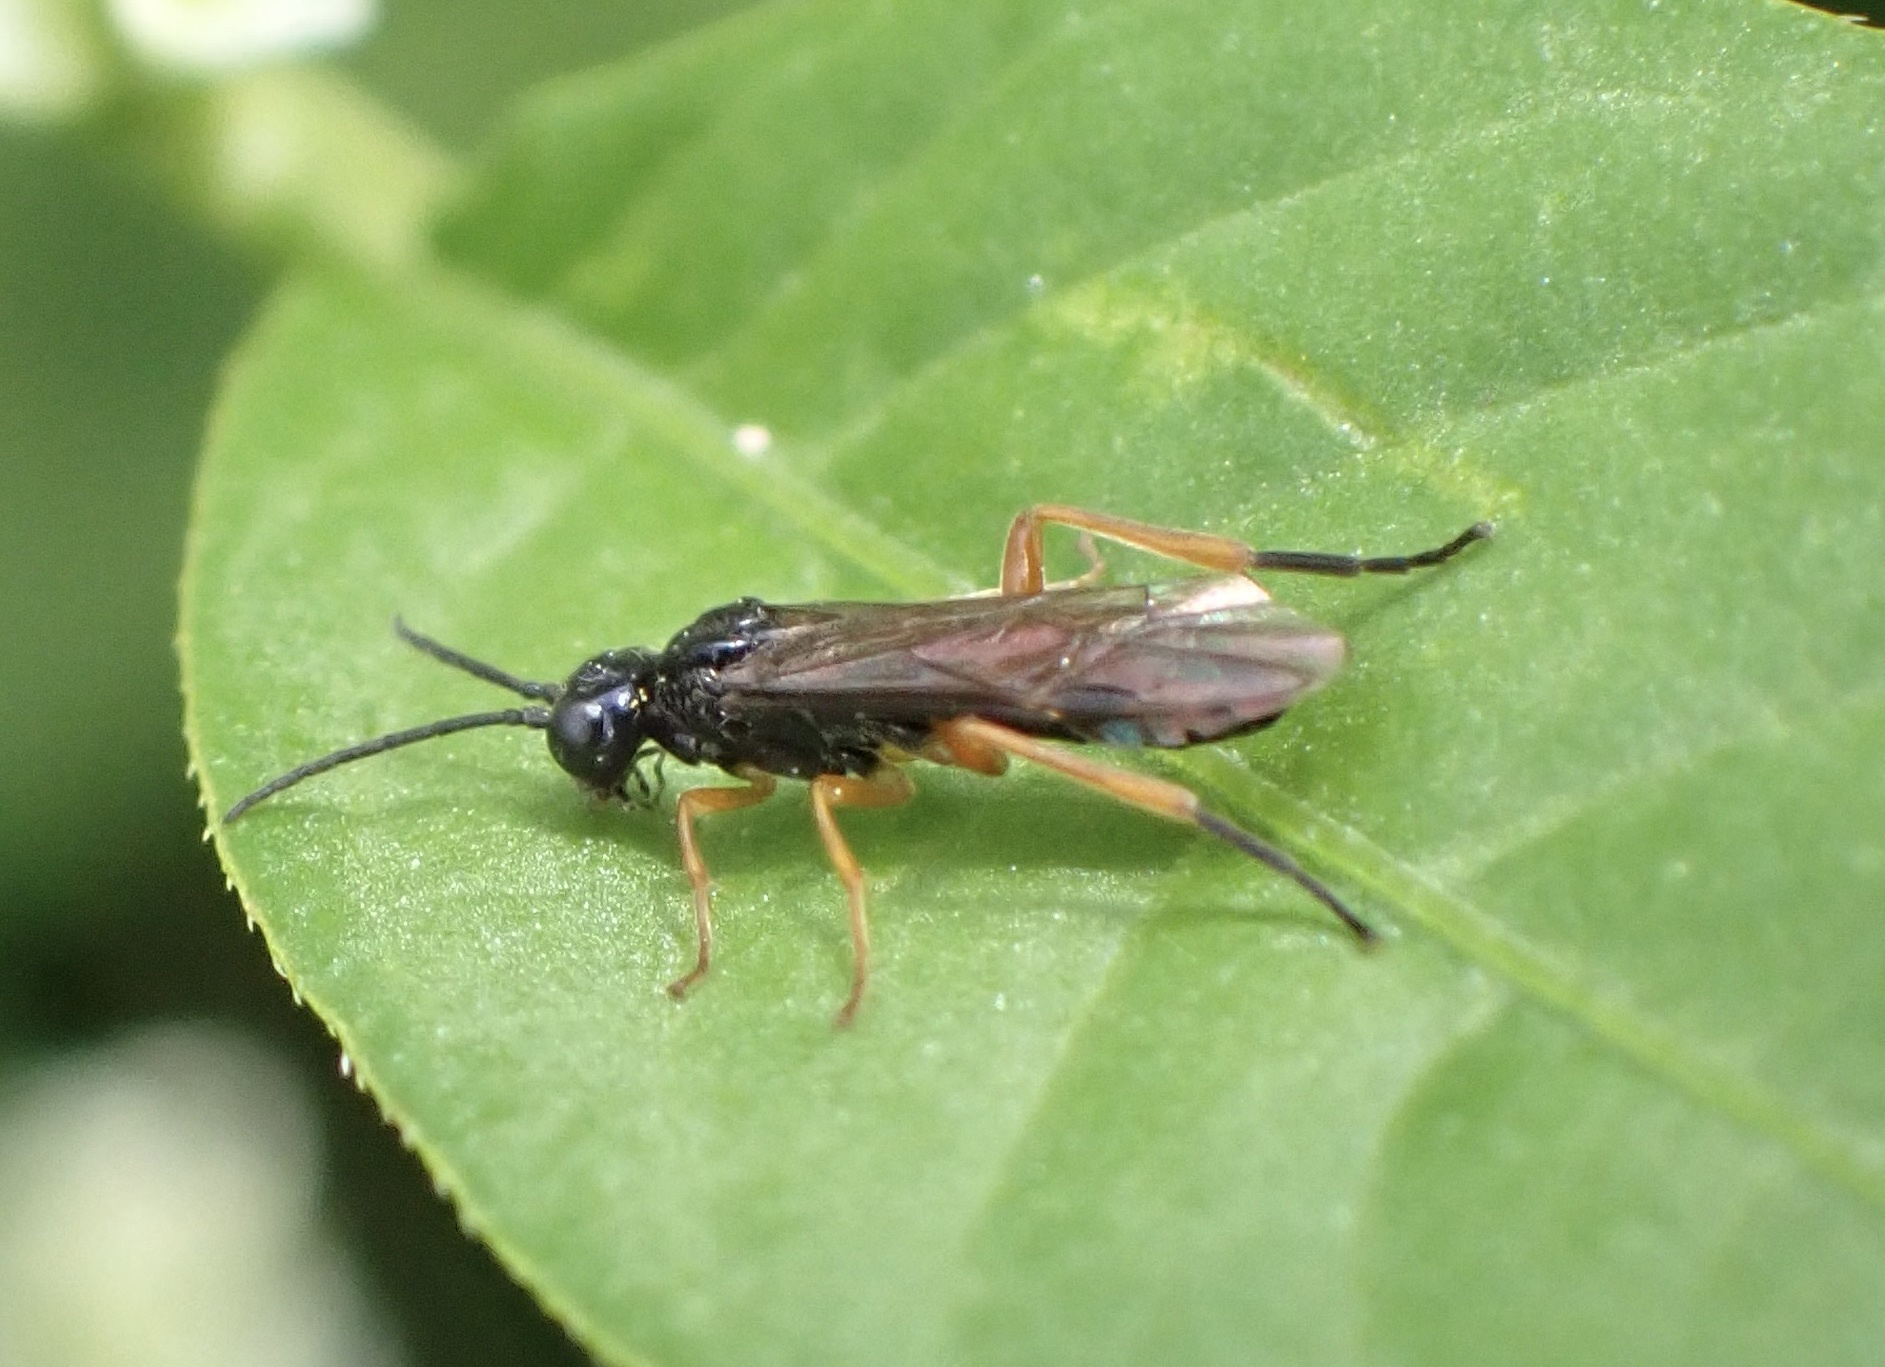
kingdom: Animalia
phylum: Arthropoda
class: Insecta
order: Hymenoptera
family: Tenthredinidae
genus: Ametastegia
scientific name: Ametastegia glabrata
